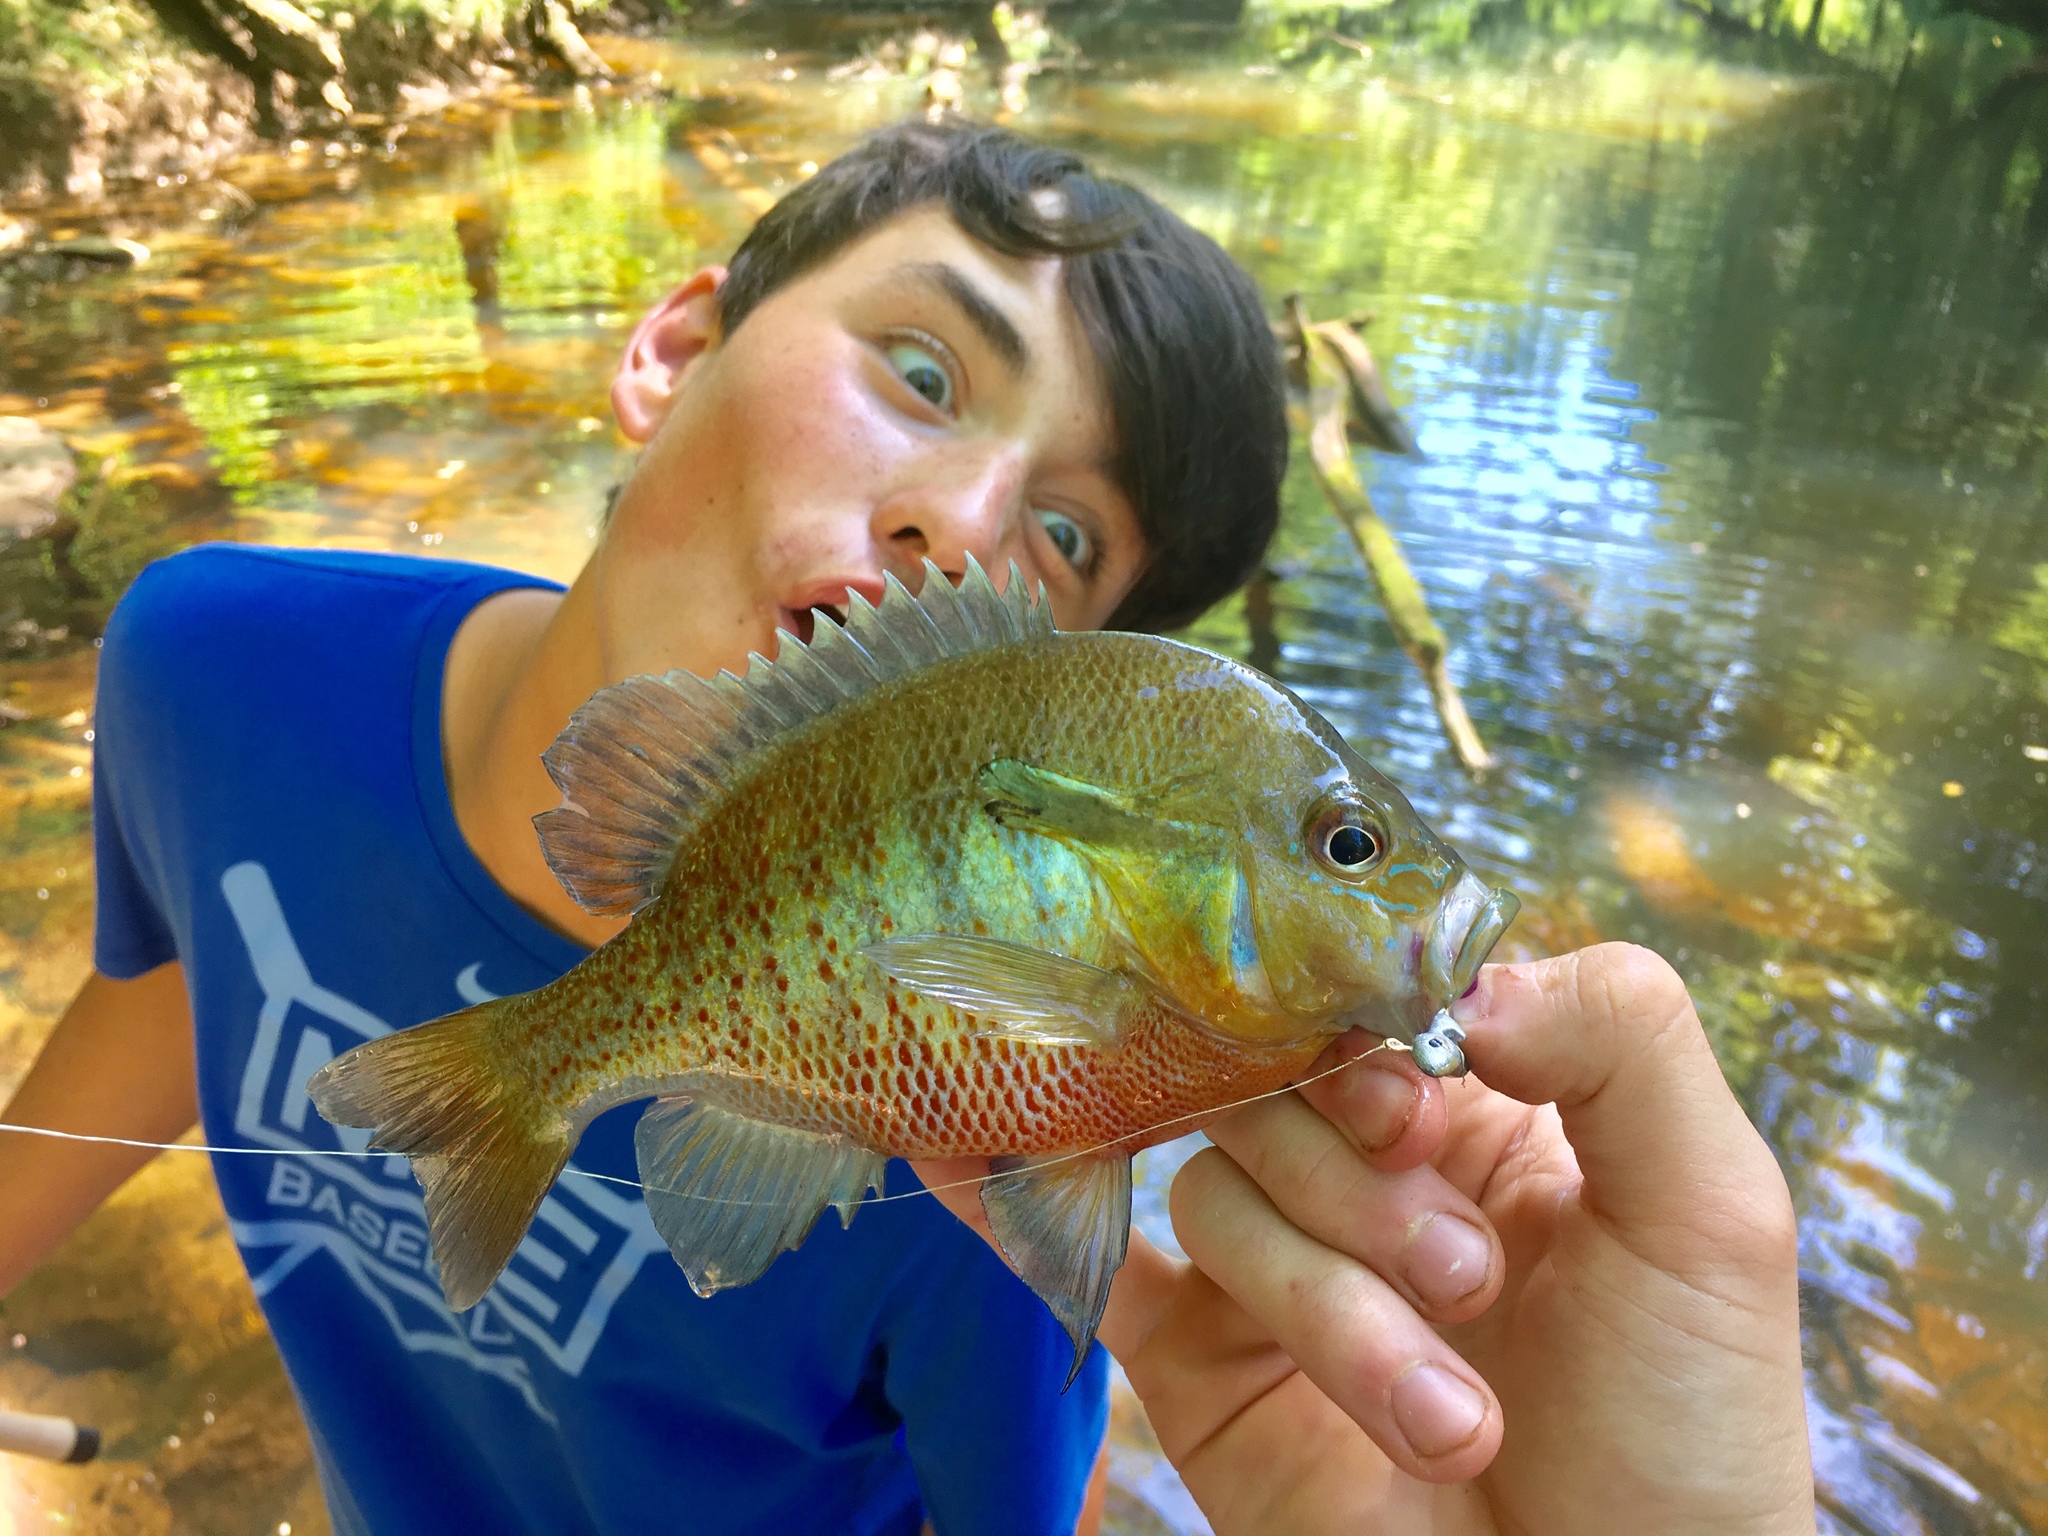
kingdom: Animalia
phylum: Chordata
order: Perciformes
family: Centrarchidae
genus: Lepomis
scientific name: Lepomis auritus
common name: Redbreast sunfish
